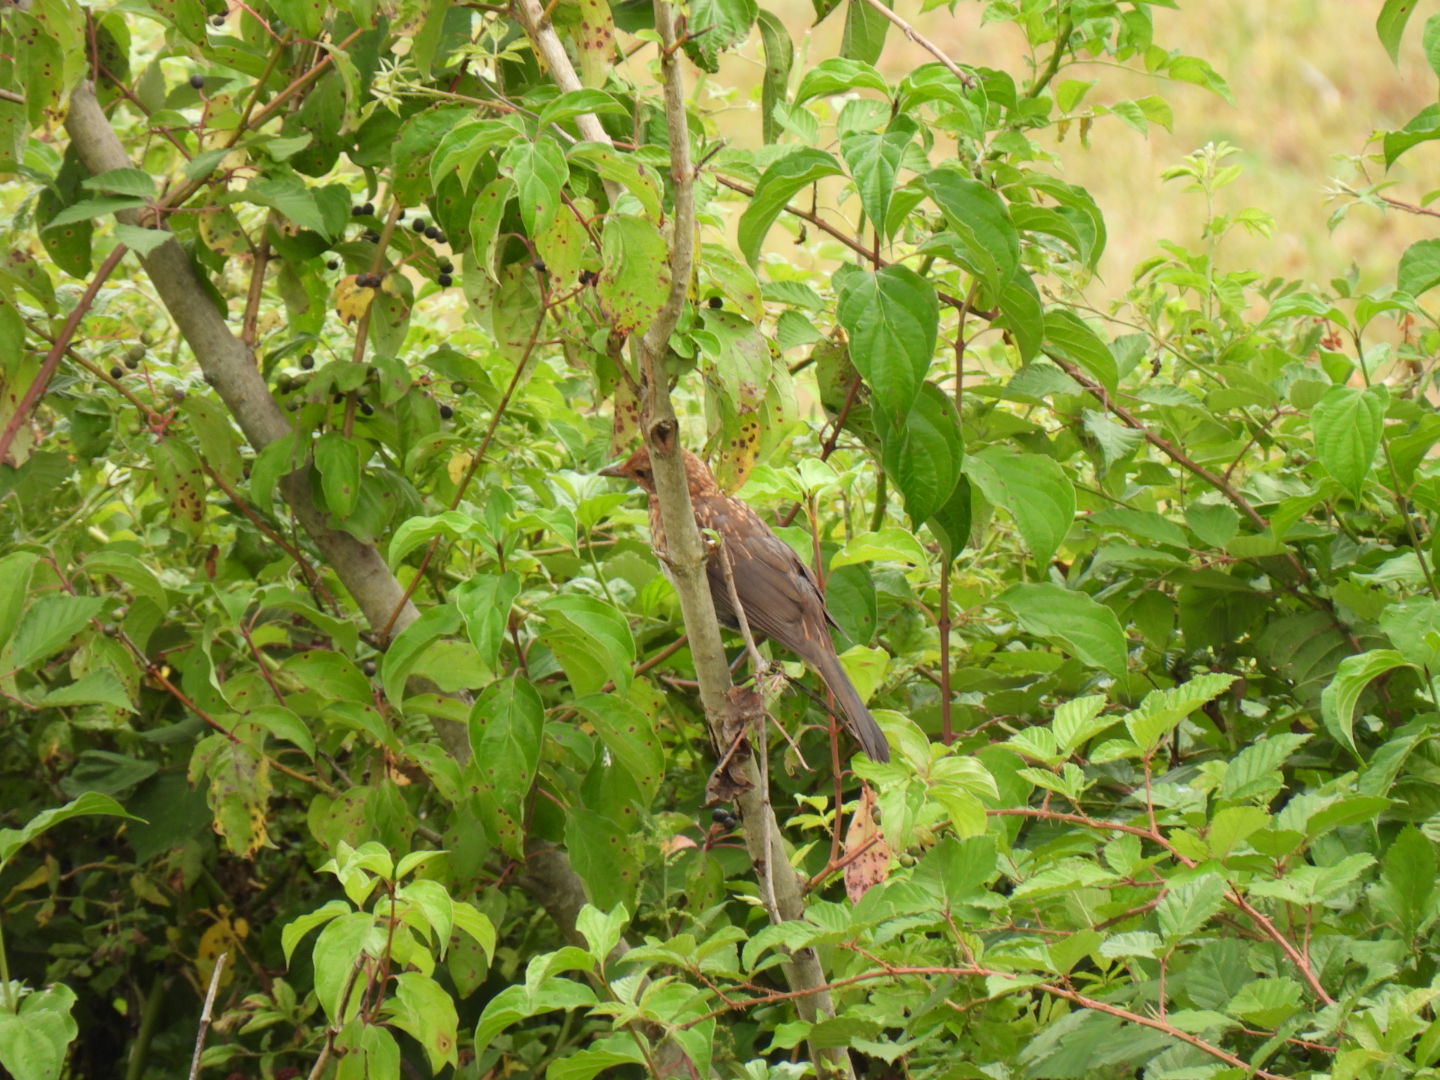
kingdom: Animalia
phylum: Chordata
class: Aves
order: Passeriformes
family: Turdidae
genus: Turdus
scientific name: Turdus merula
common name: Common blackbird
